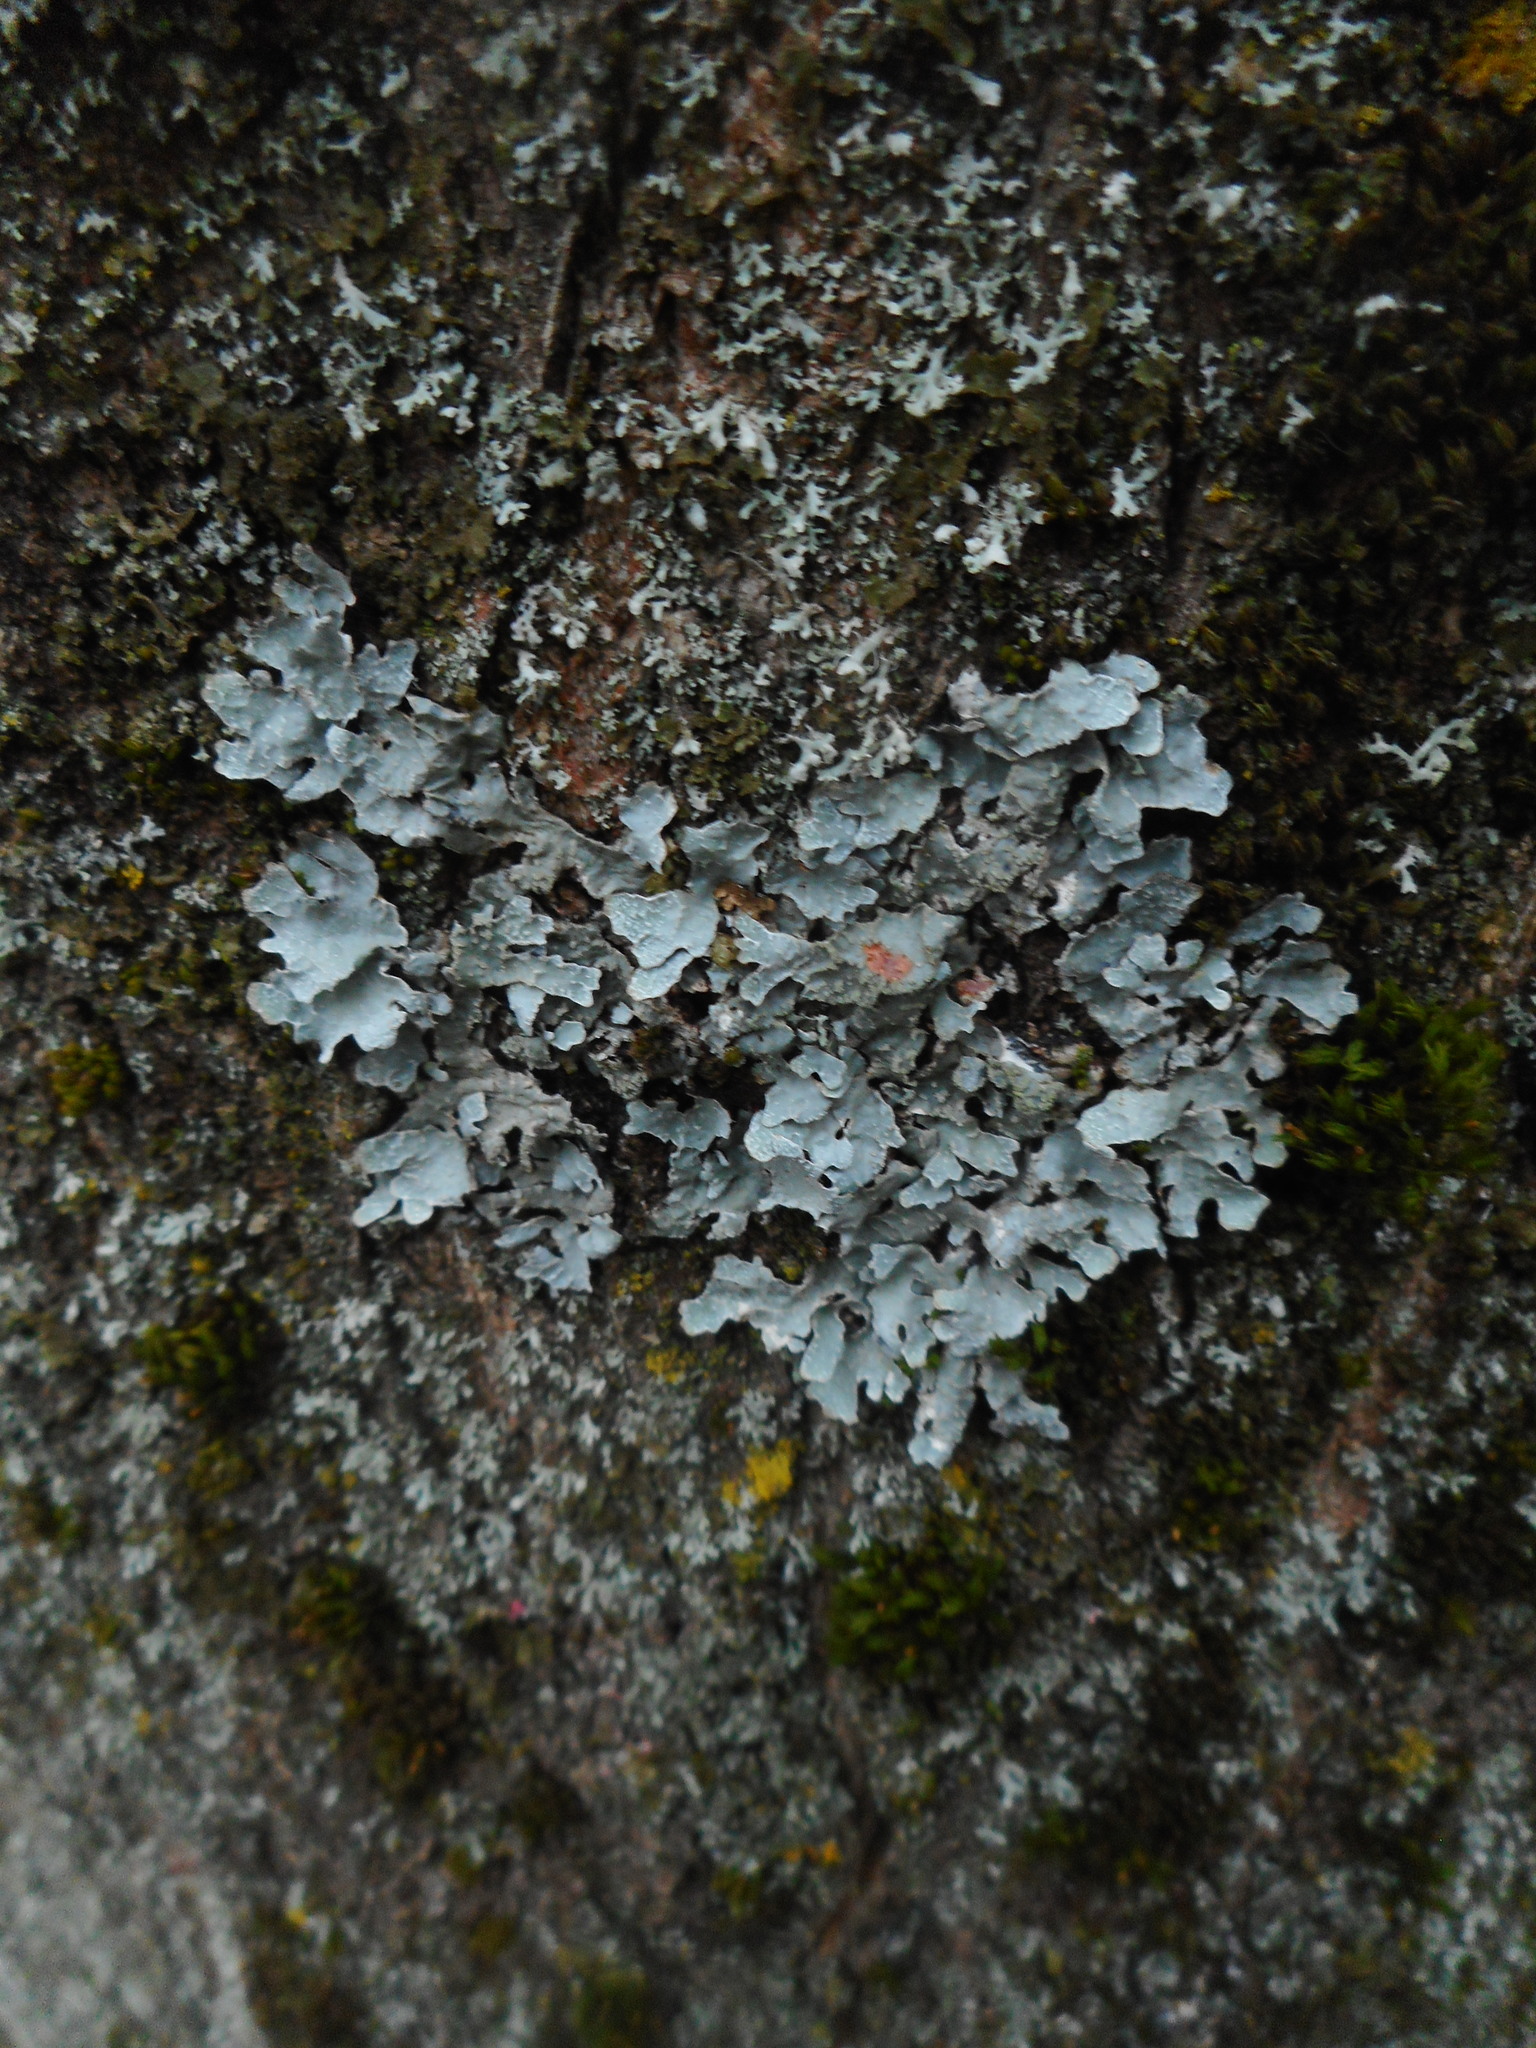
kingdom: Fungi
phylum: Ascomycota
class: Lecanoromycetes
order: Lecanorales
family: Parmeliaceae
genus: Parmelia
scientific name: Parmelia sulcata
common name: Netted shield lichen
